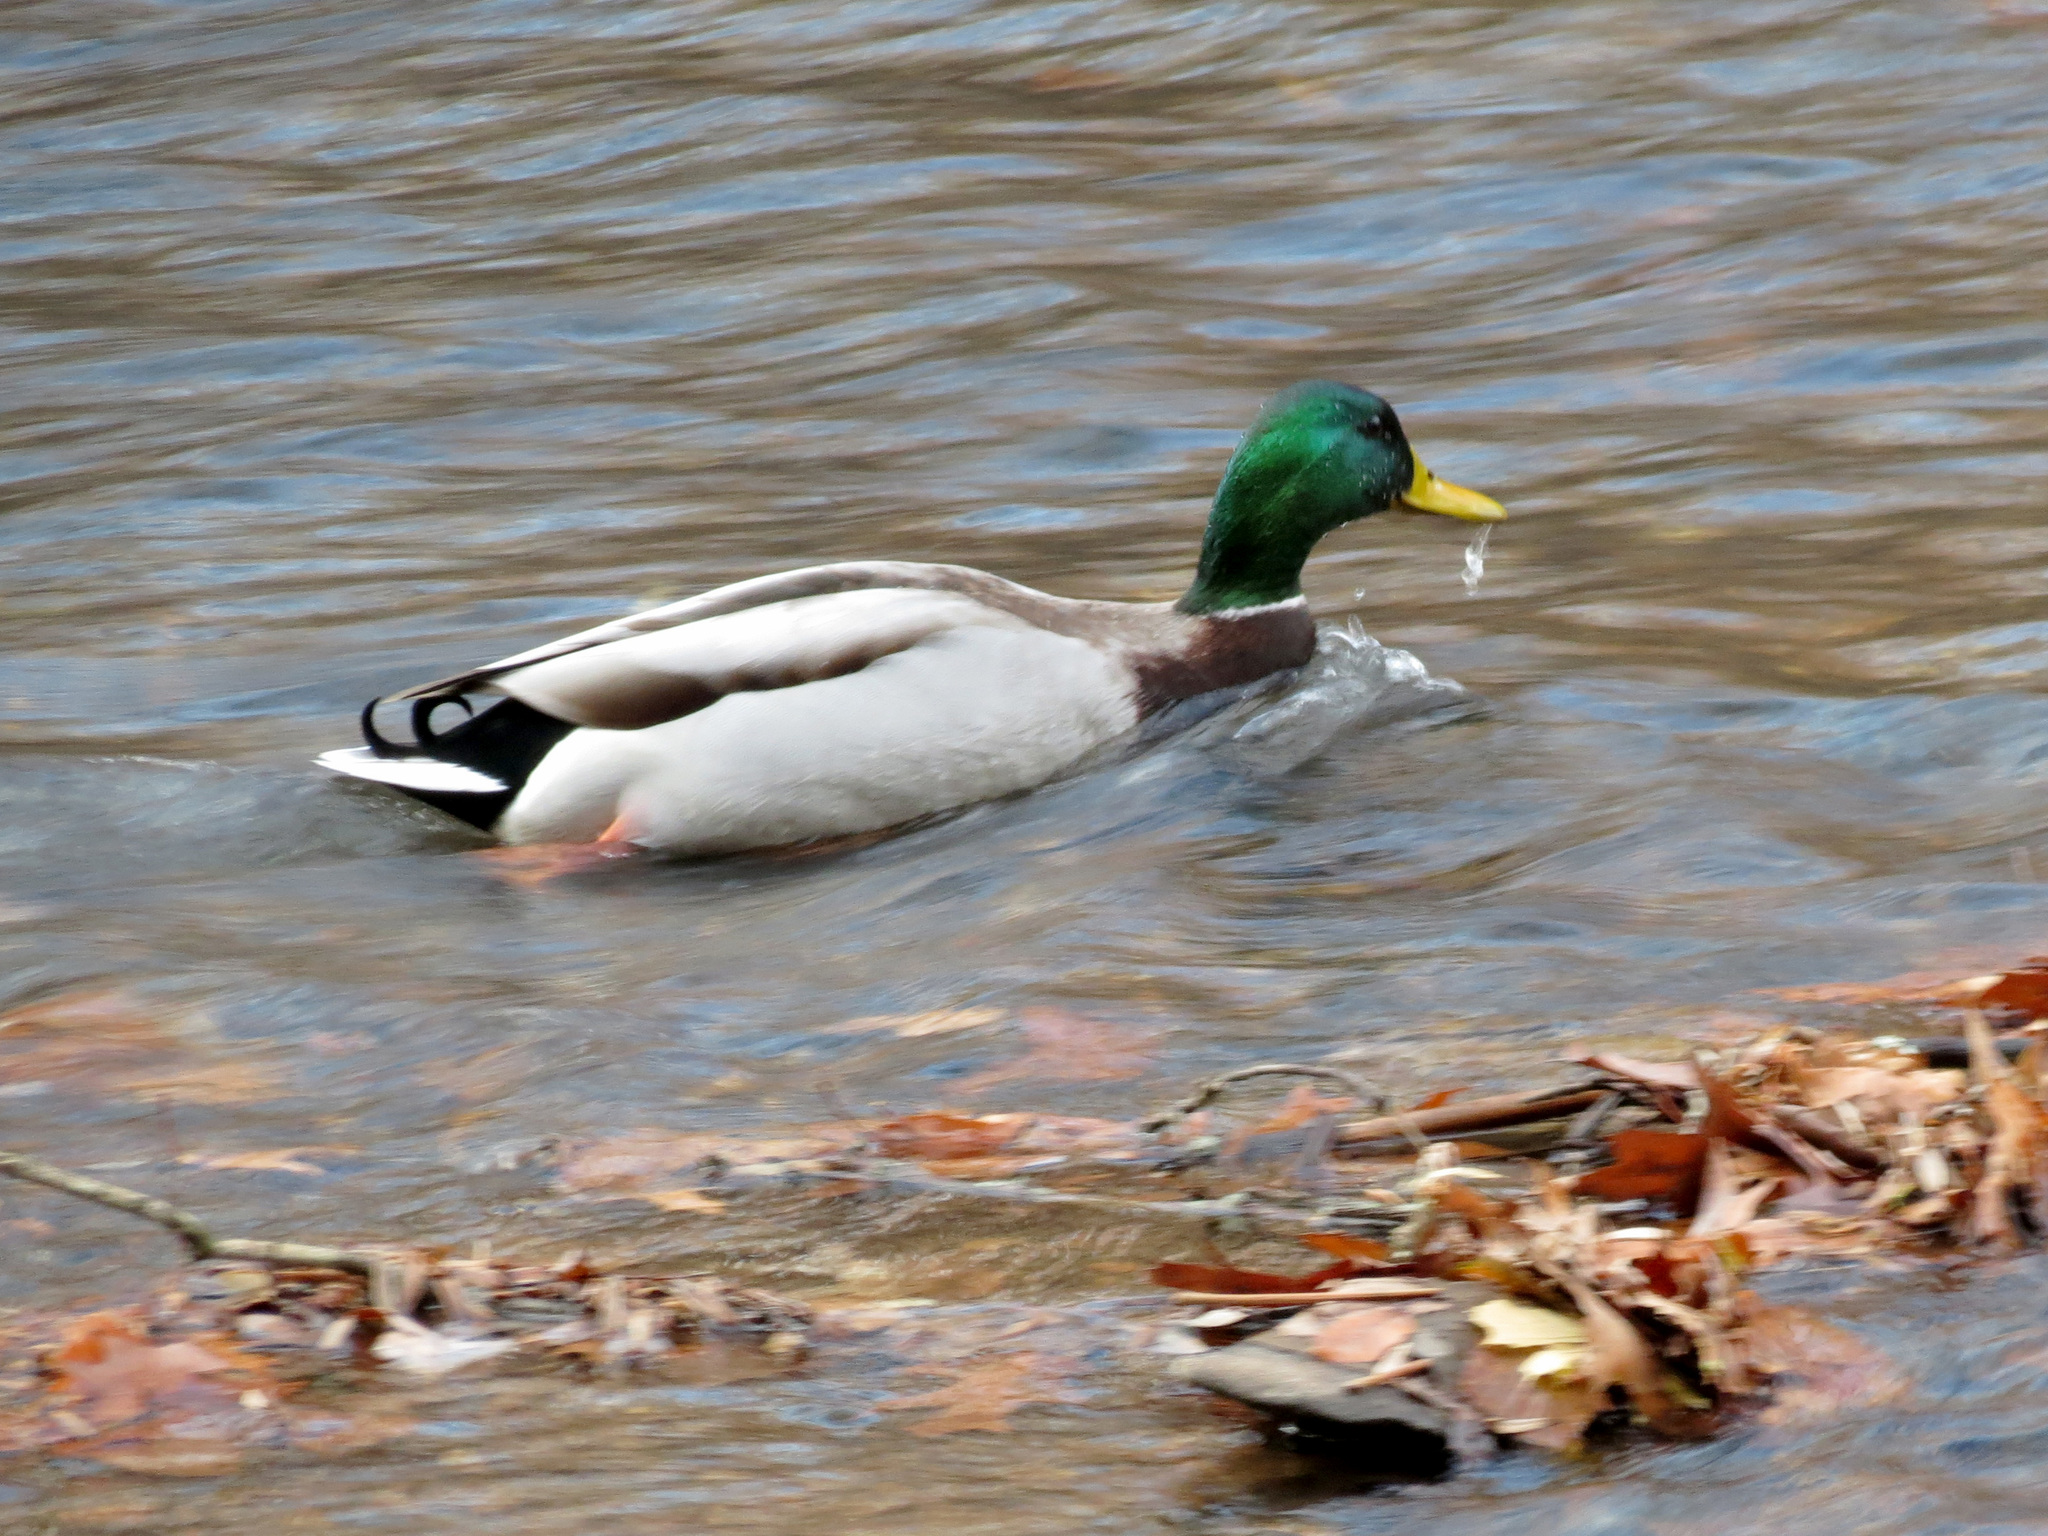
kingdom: Animalia
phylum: Chordata
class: Aves
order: Anseriformes
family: Anatidae
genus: Anas
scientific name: Anas platyrhynchos
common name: Mallard
